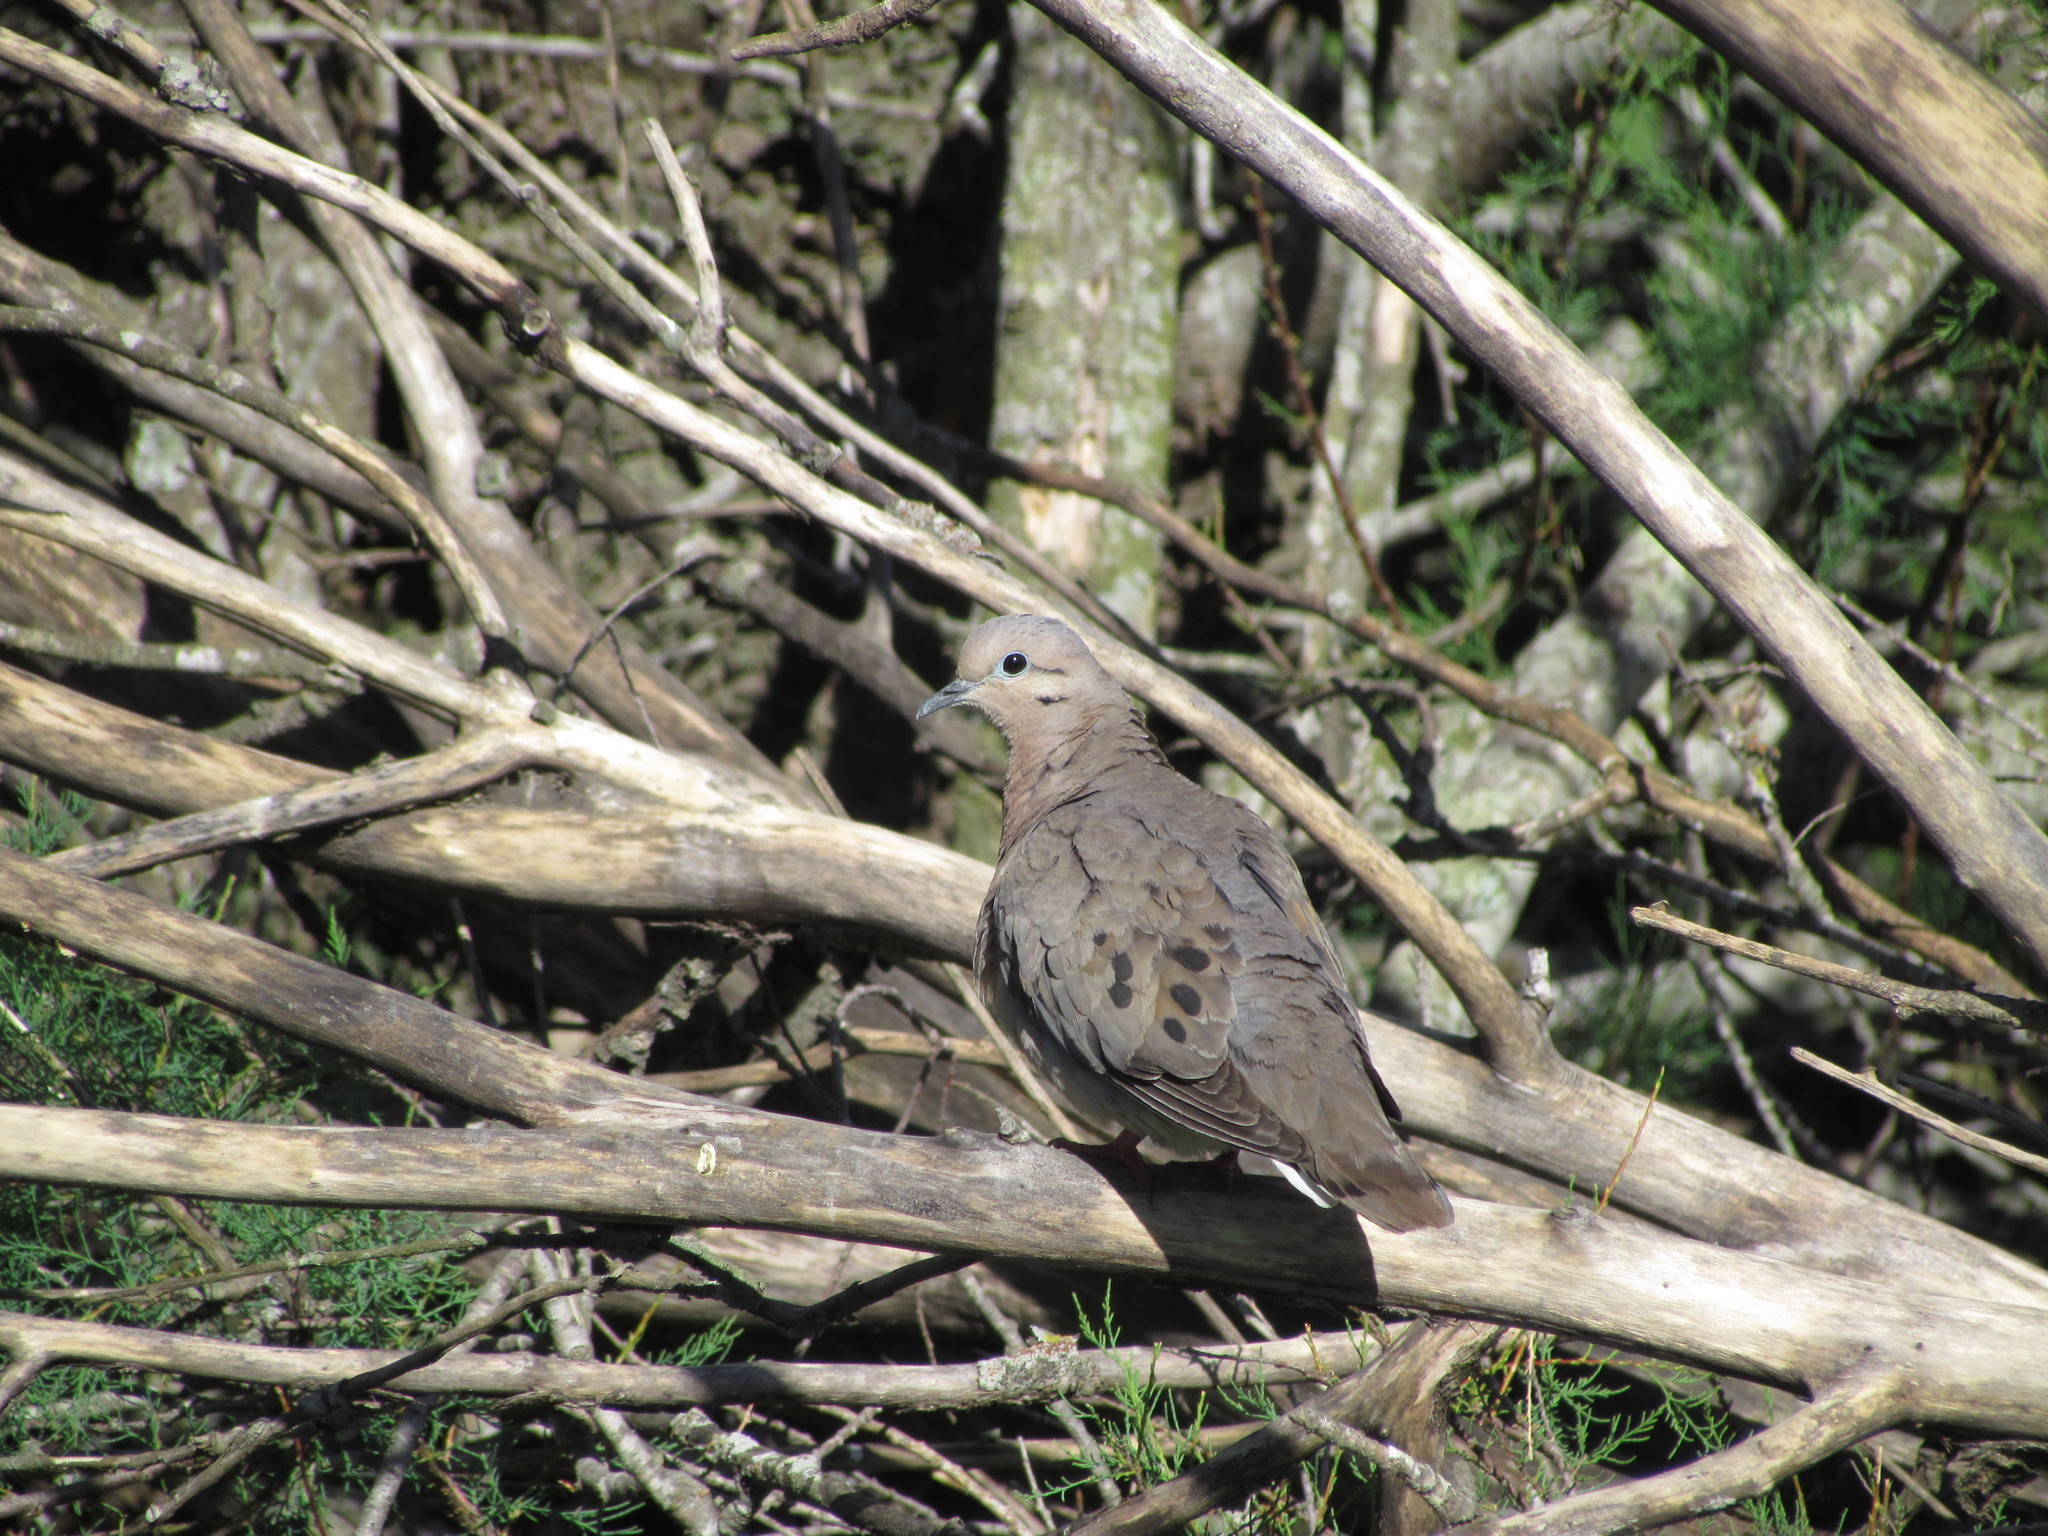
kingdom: Animalia
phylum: Chordata
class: Aves
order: Columbiformes
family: Columbidae
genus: Zenaida
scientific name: Zenaida auriculata
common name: Eared dove
